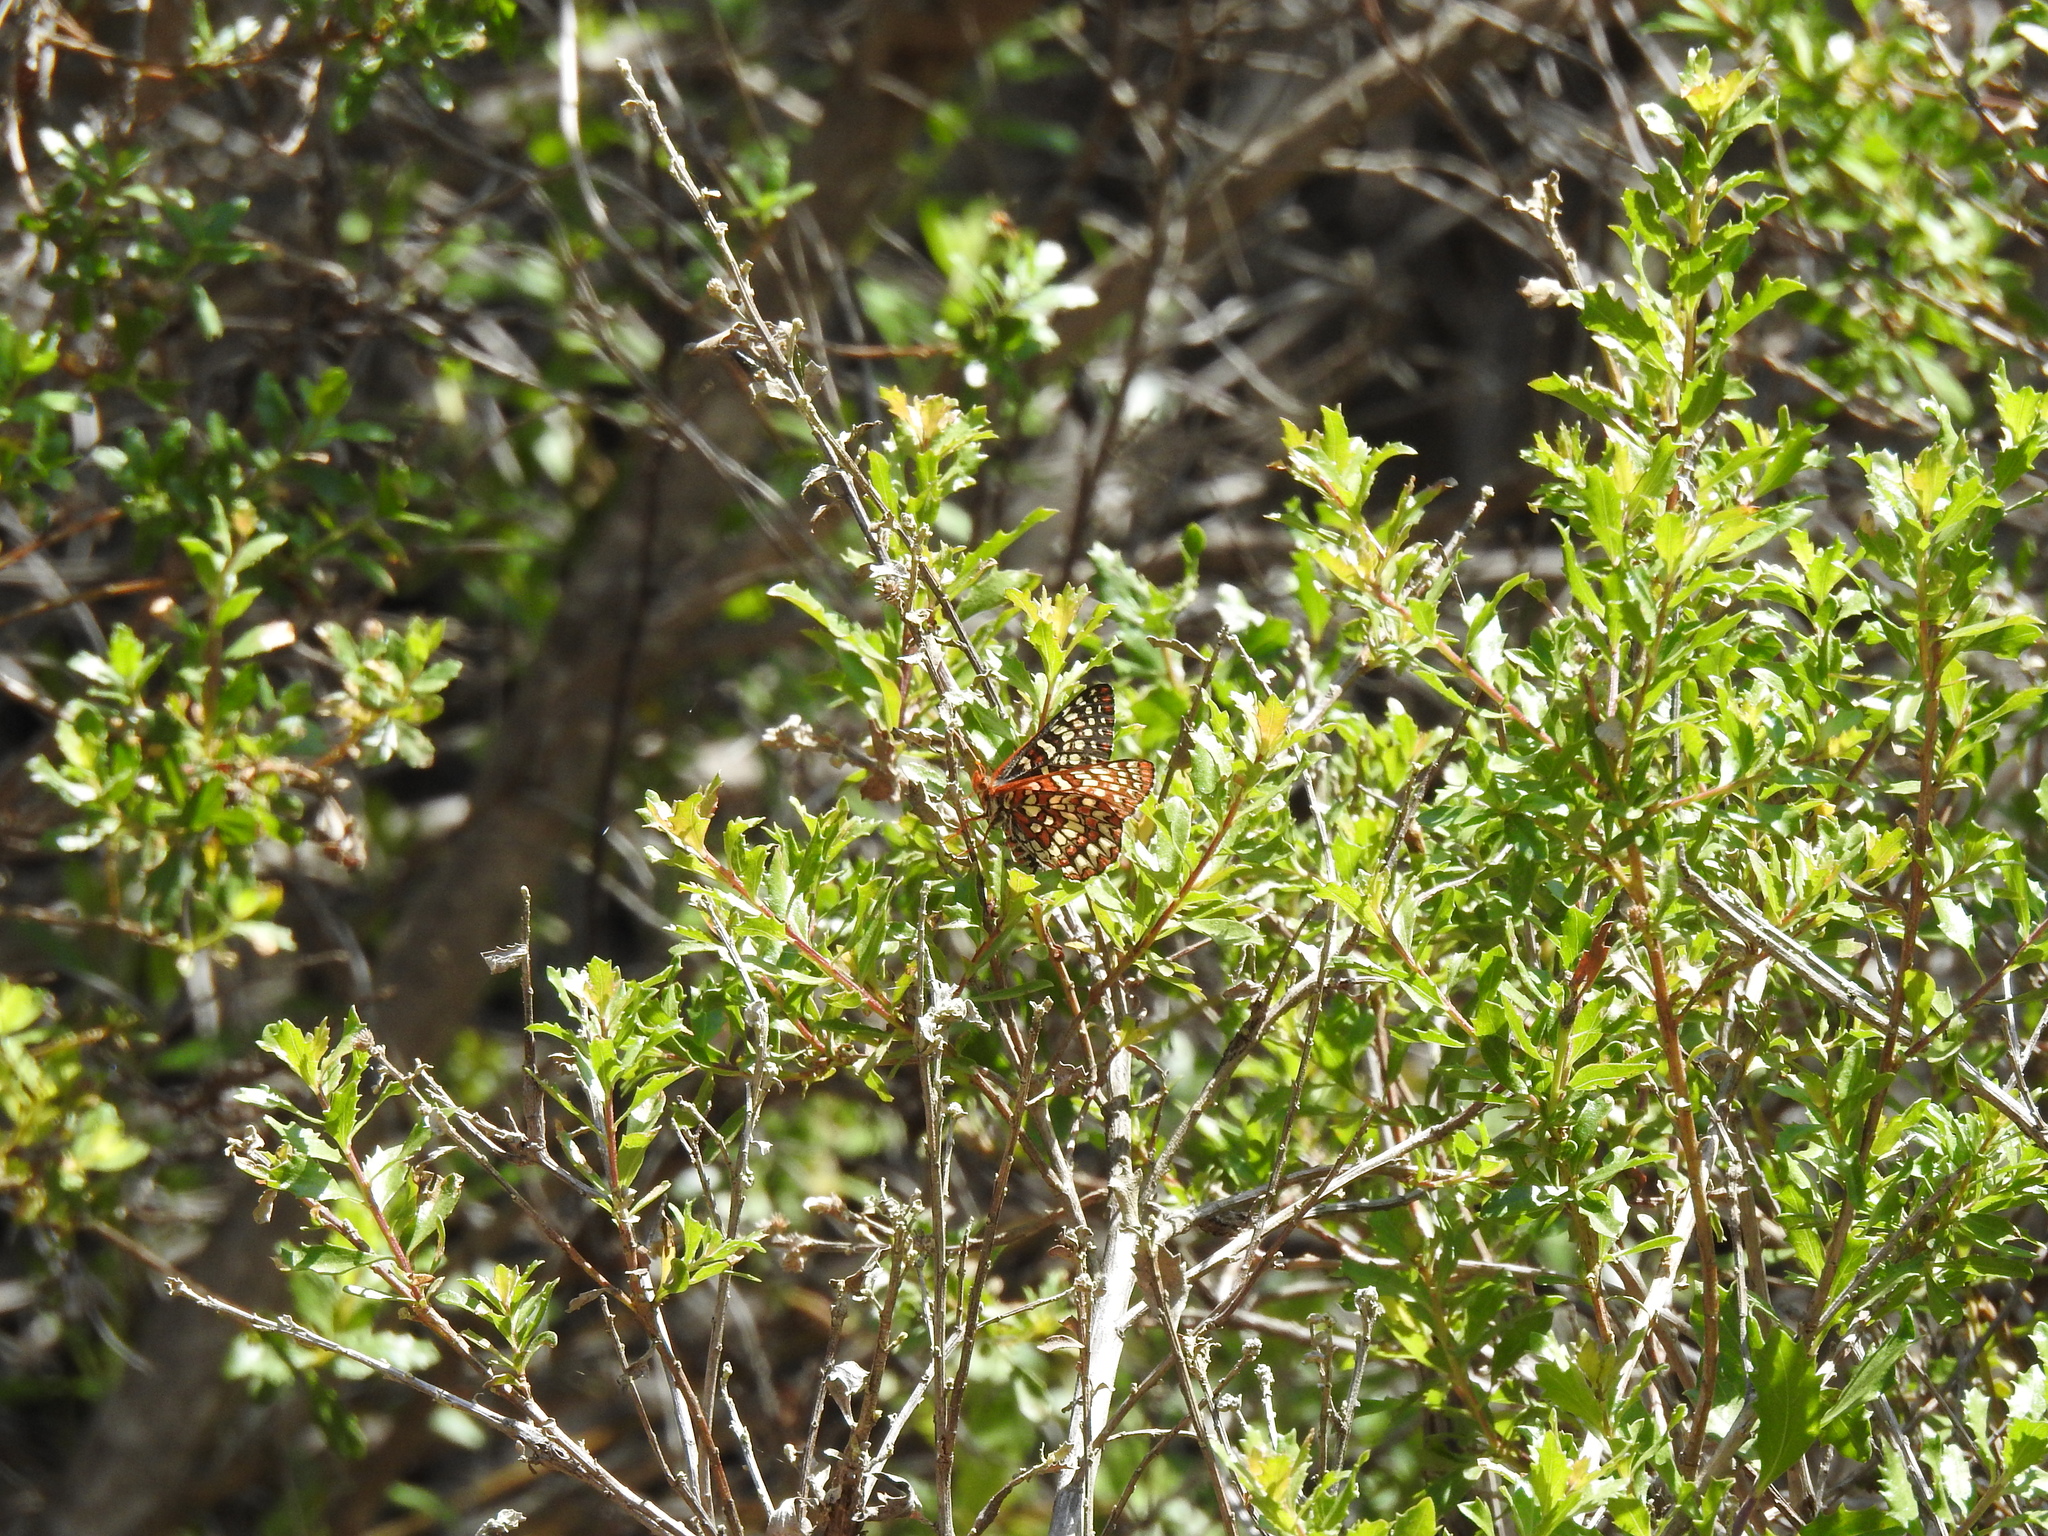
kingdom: Animalia
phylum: Arthropoda
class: Insecta
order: Lepidoptera
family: Nymphalidae
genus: Occidryas
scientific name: Occidryas chalcedona
